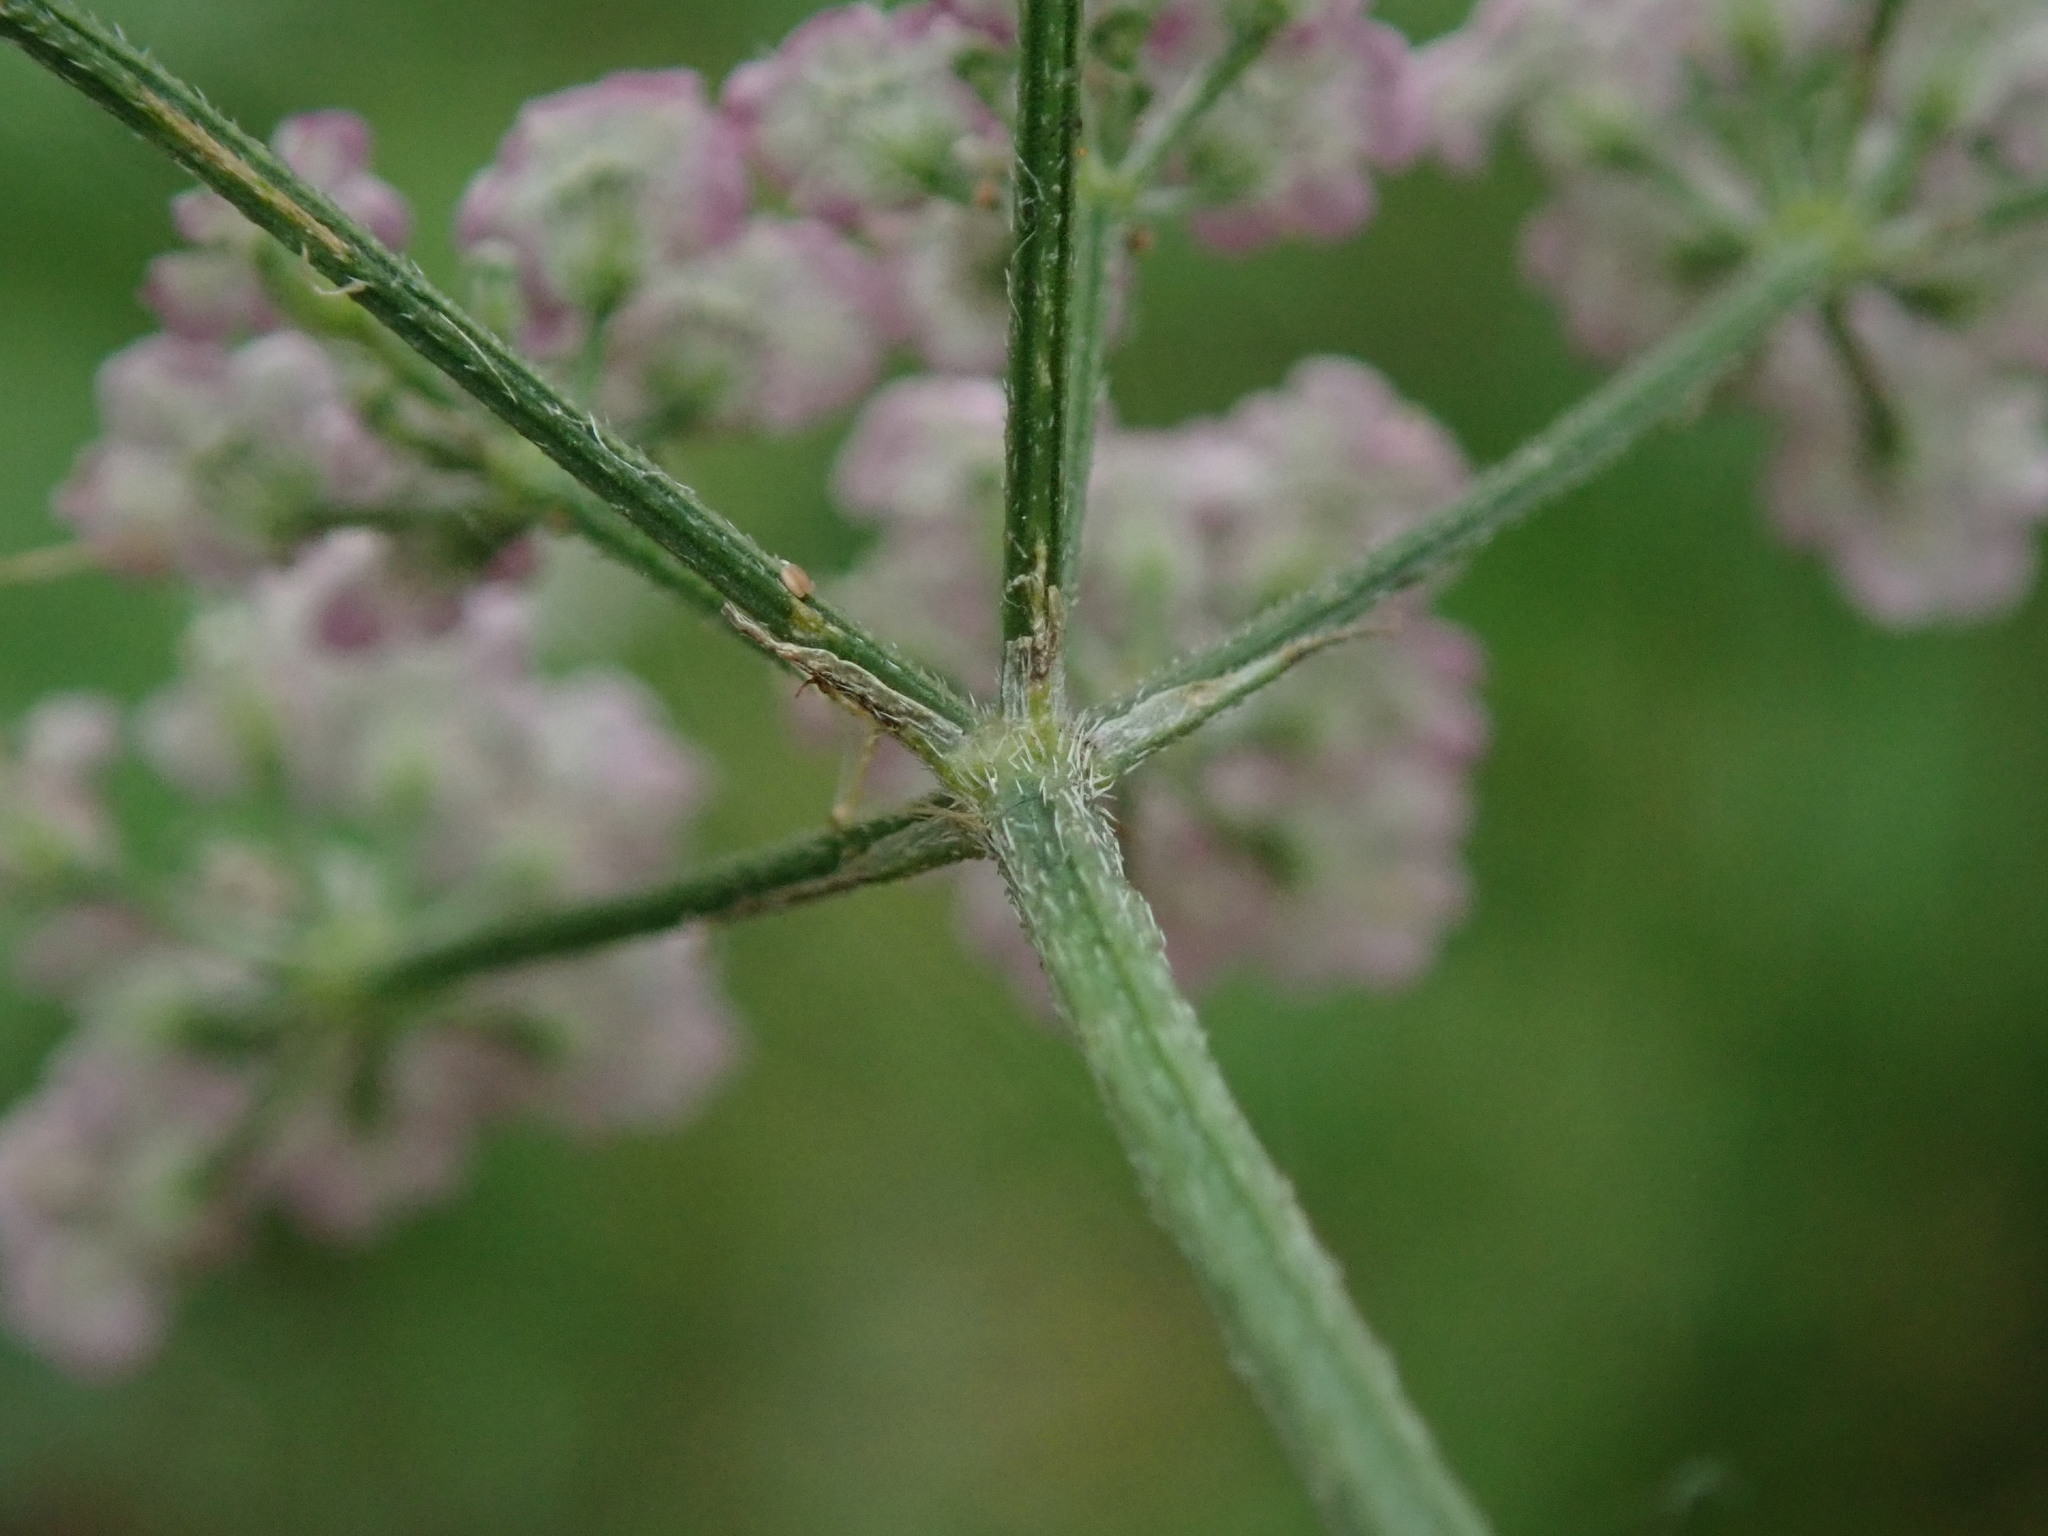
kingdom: Plantae
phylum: Tracheophyta
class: Magnoliopsida
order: Apiales
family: Apiaceae
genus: Torilis
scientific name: Torilis japonica
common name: Upright hedge-parsley
